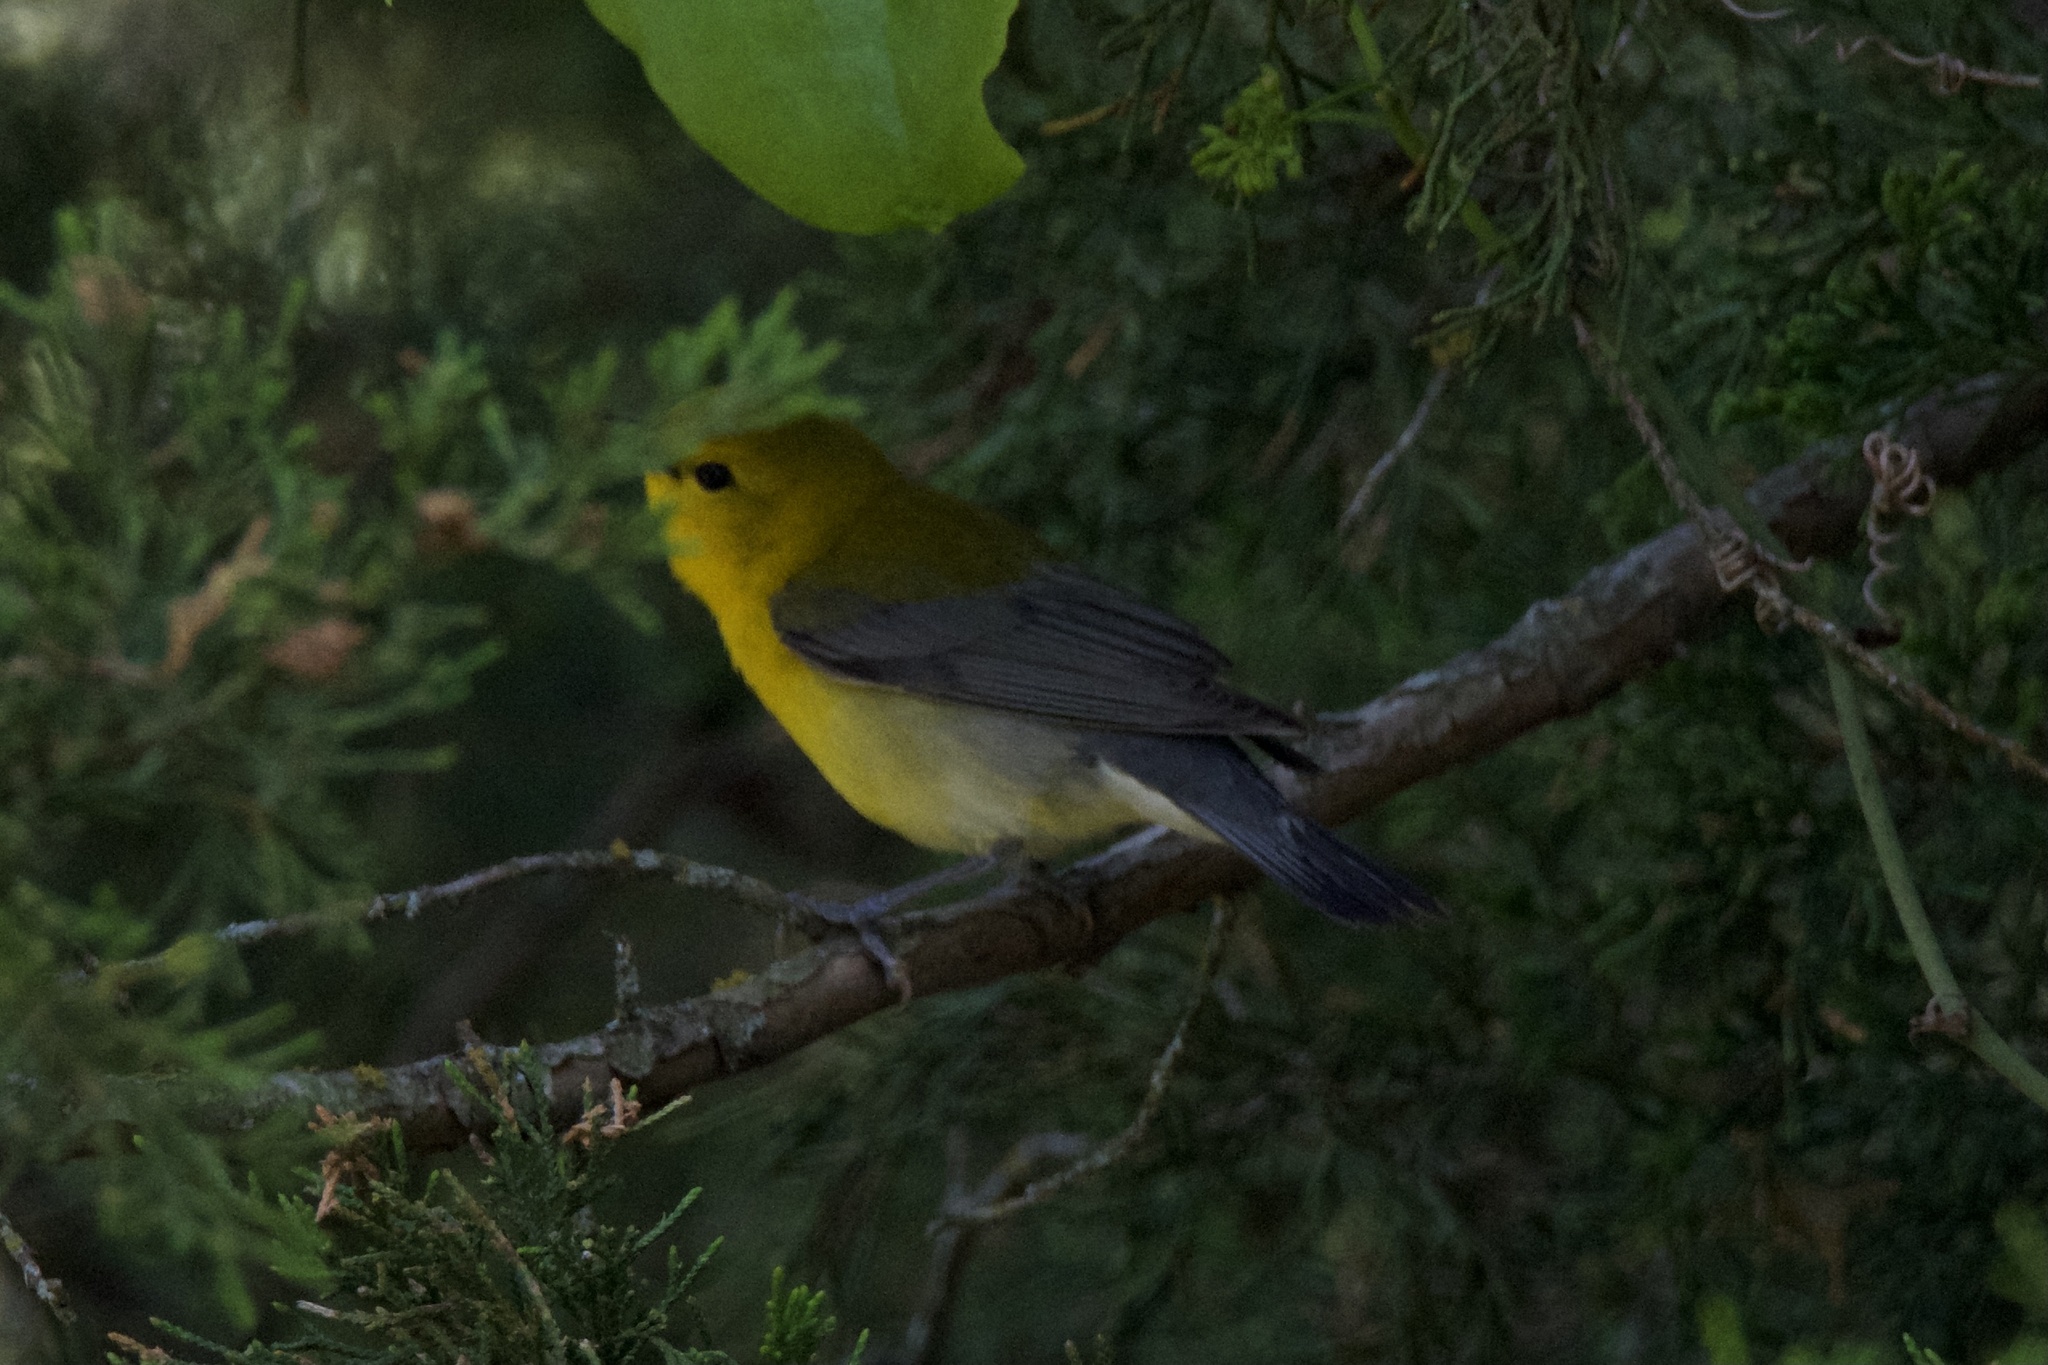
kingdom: Animalia
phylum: Chordata
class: Aves
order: Passeriformes
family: Parulidae
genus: Protonotaria
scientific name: Protonotaria citrea
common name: Prothonotary warbler
